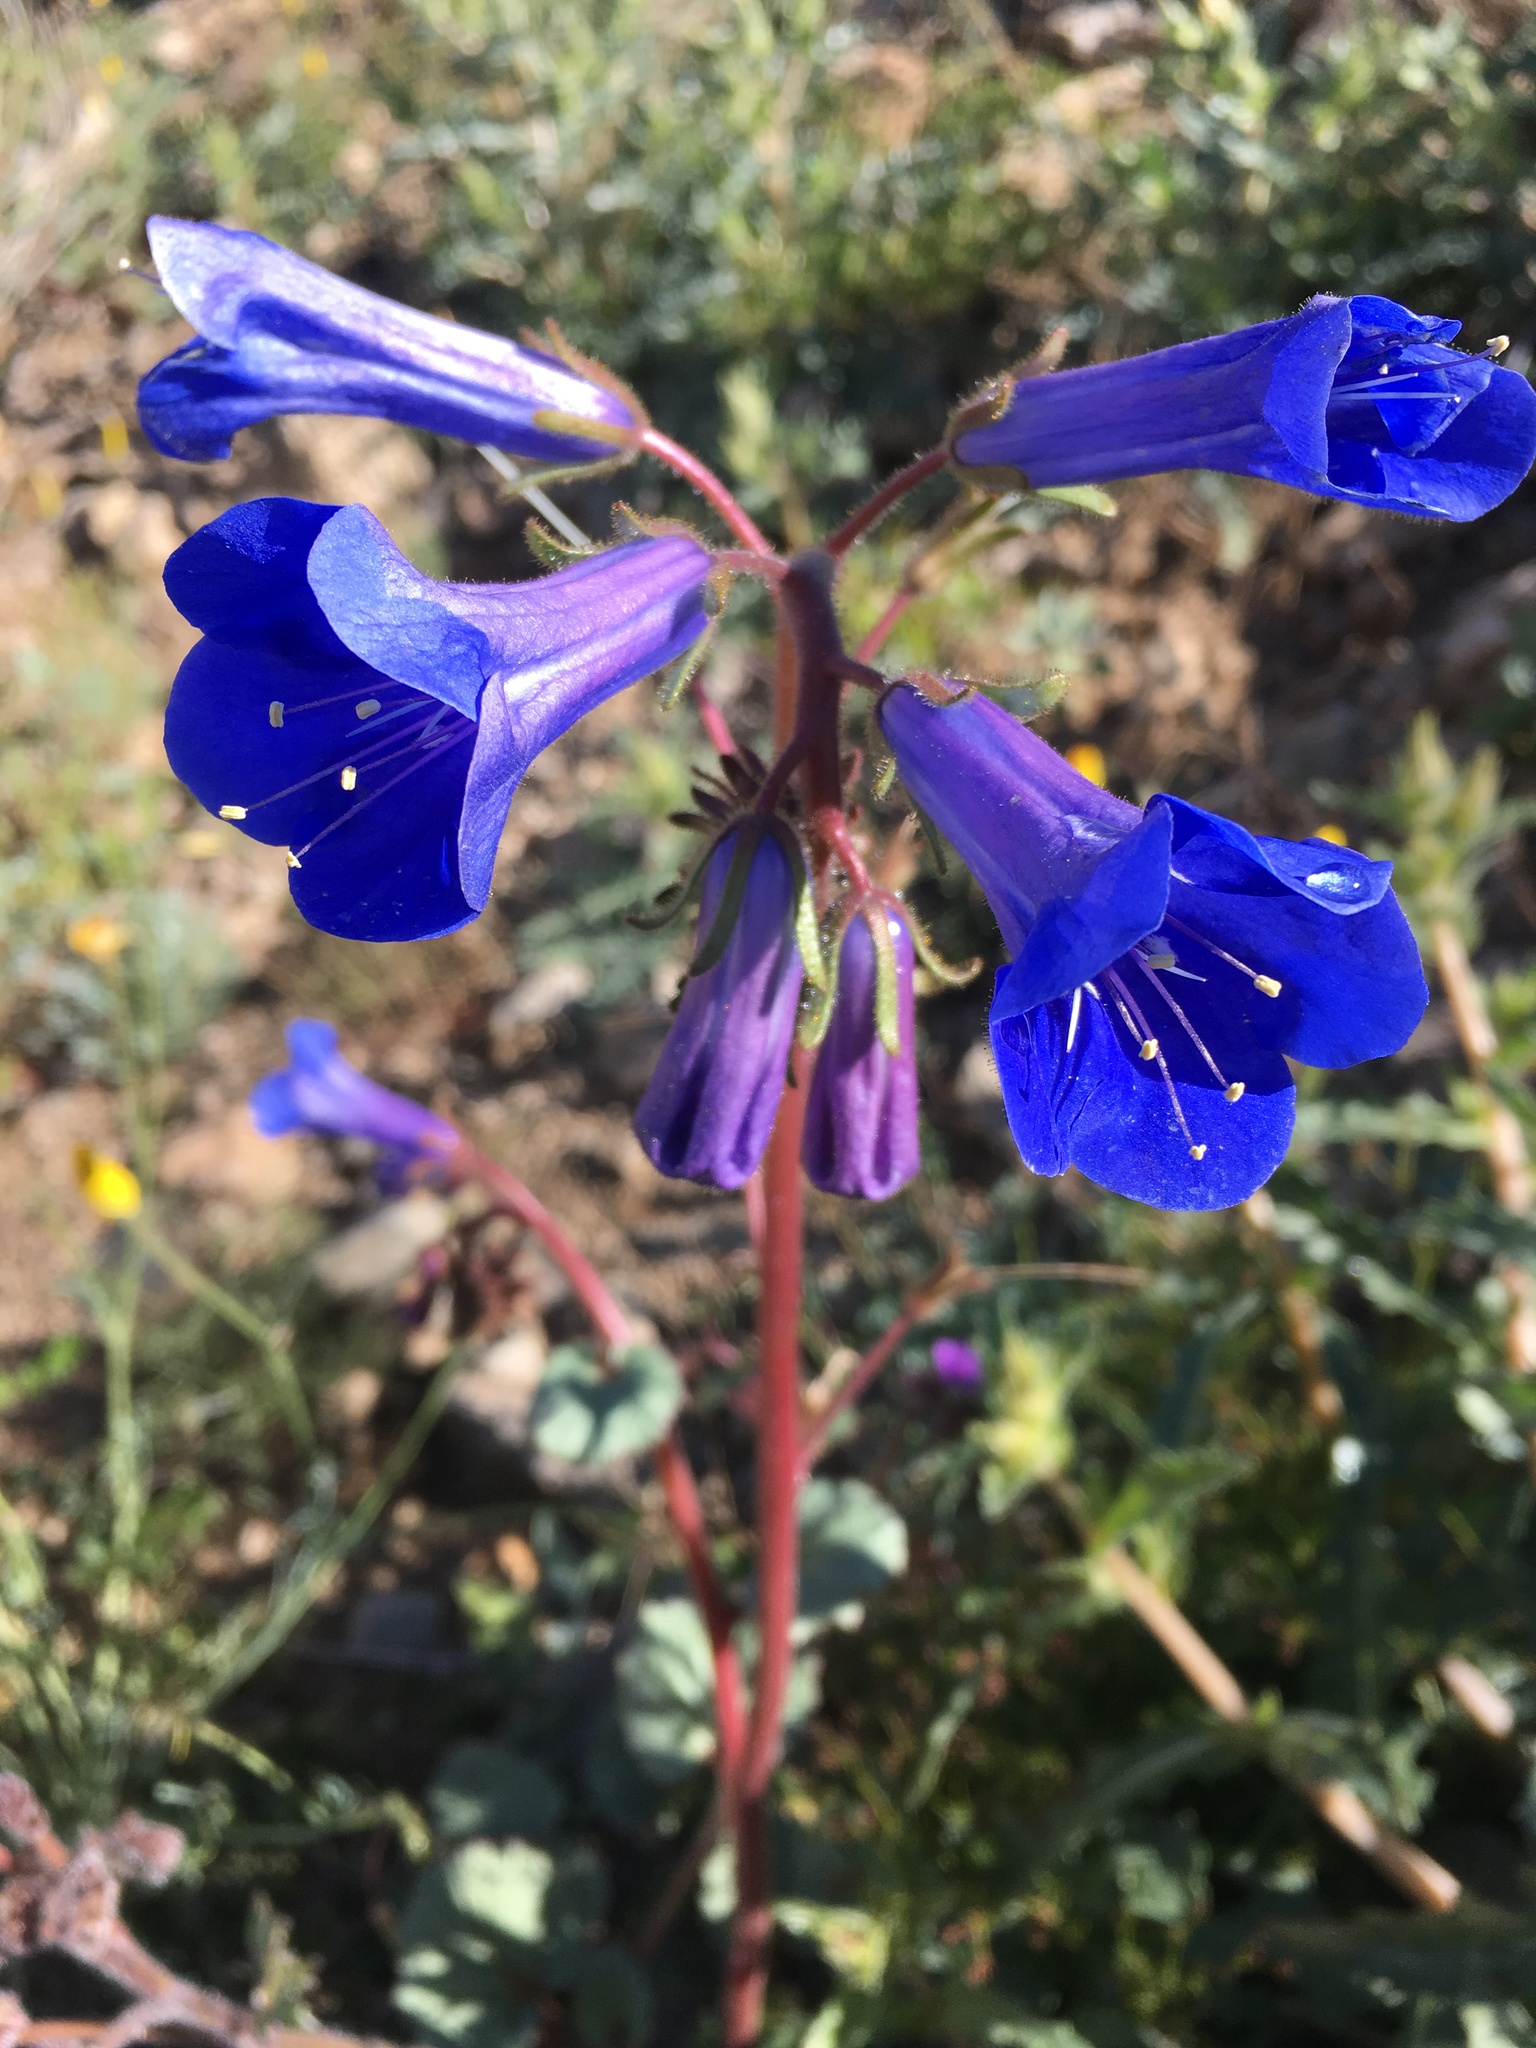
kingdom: Plantae
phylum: Tracheophyta
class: Magnoliopsida
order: Boraginales
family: Hydrophyllaceae
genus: Phacelia
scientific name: Phacelia campanularia
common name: California bluebell
